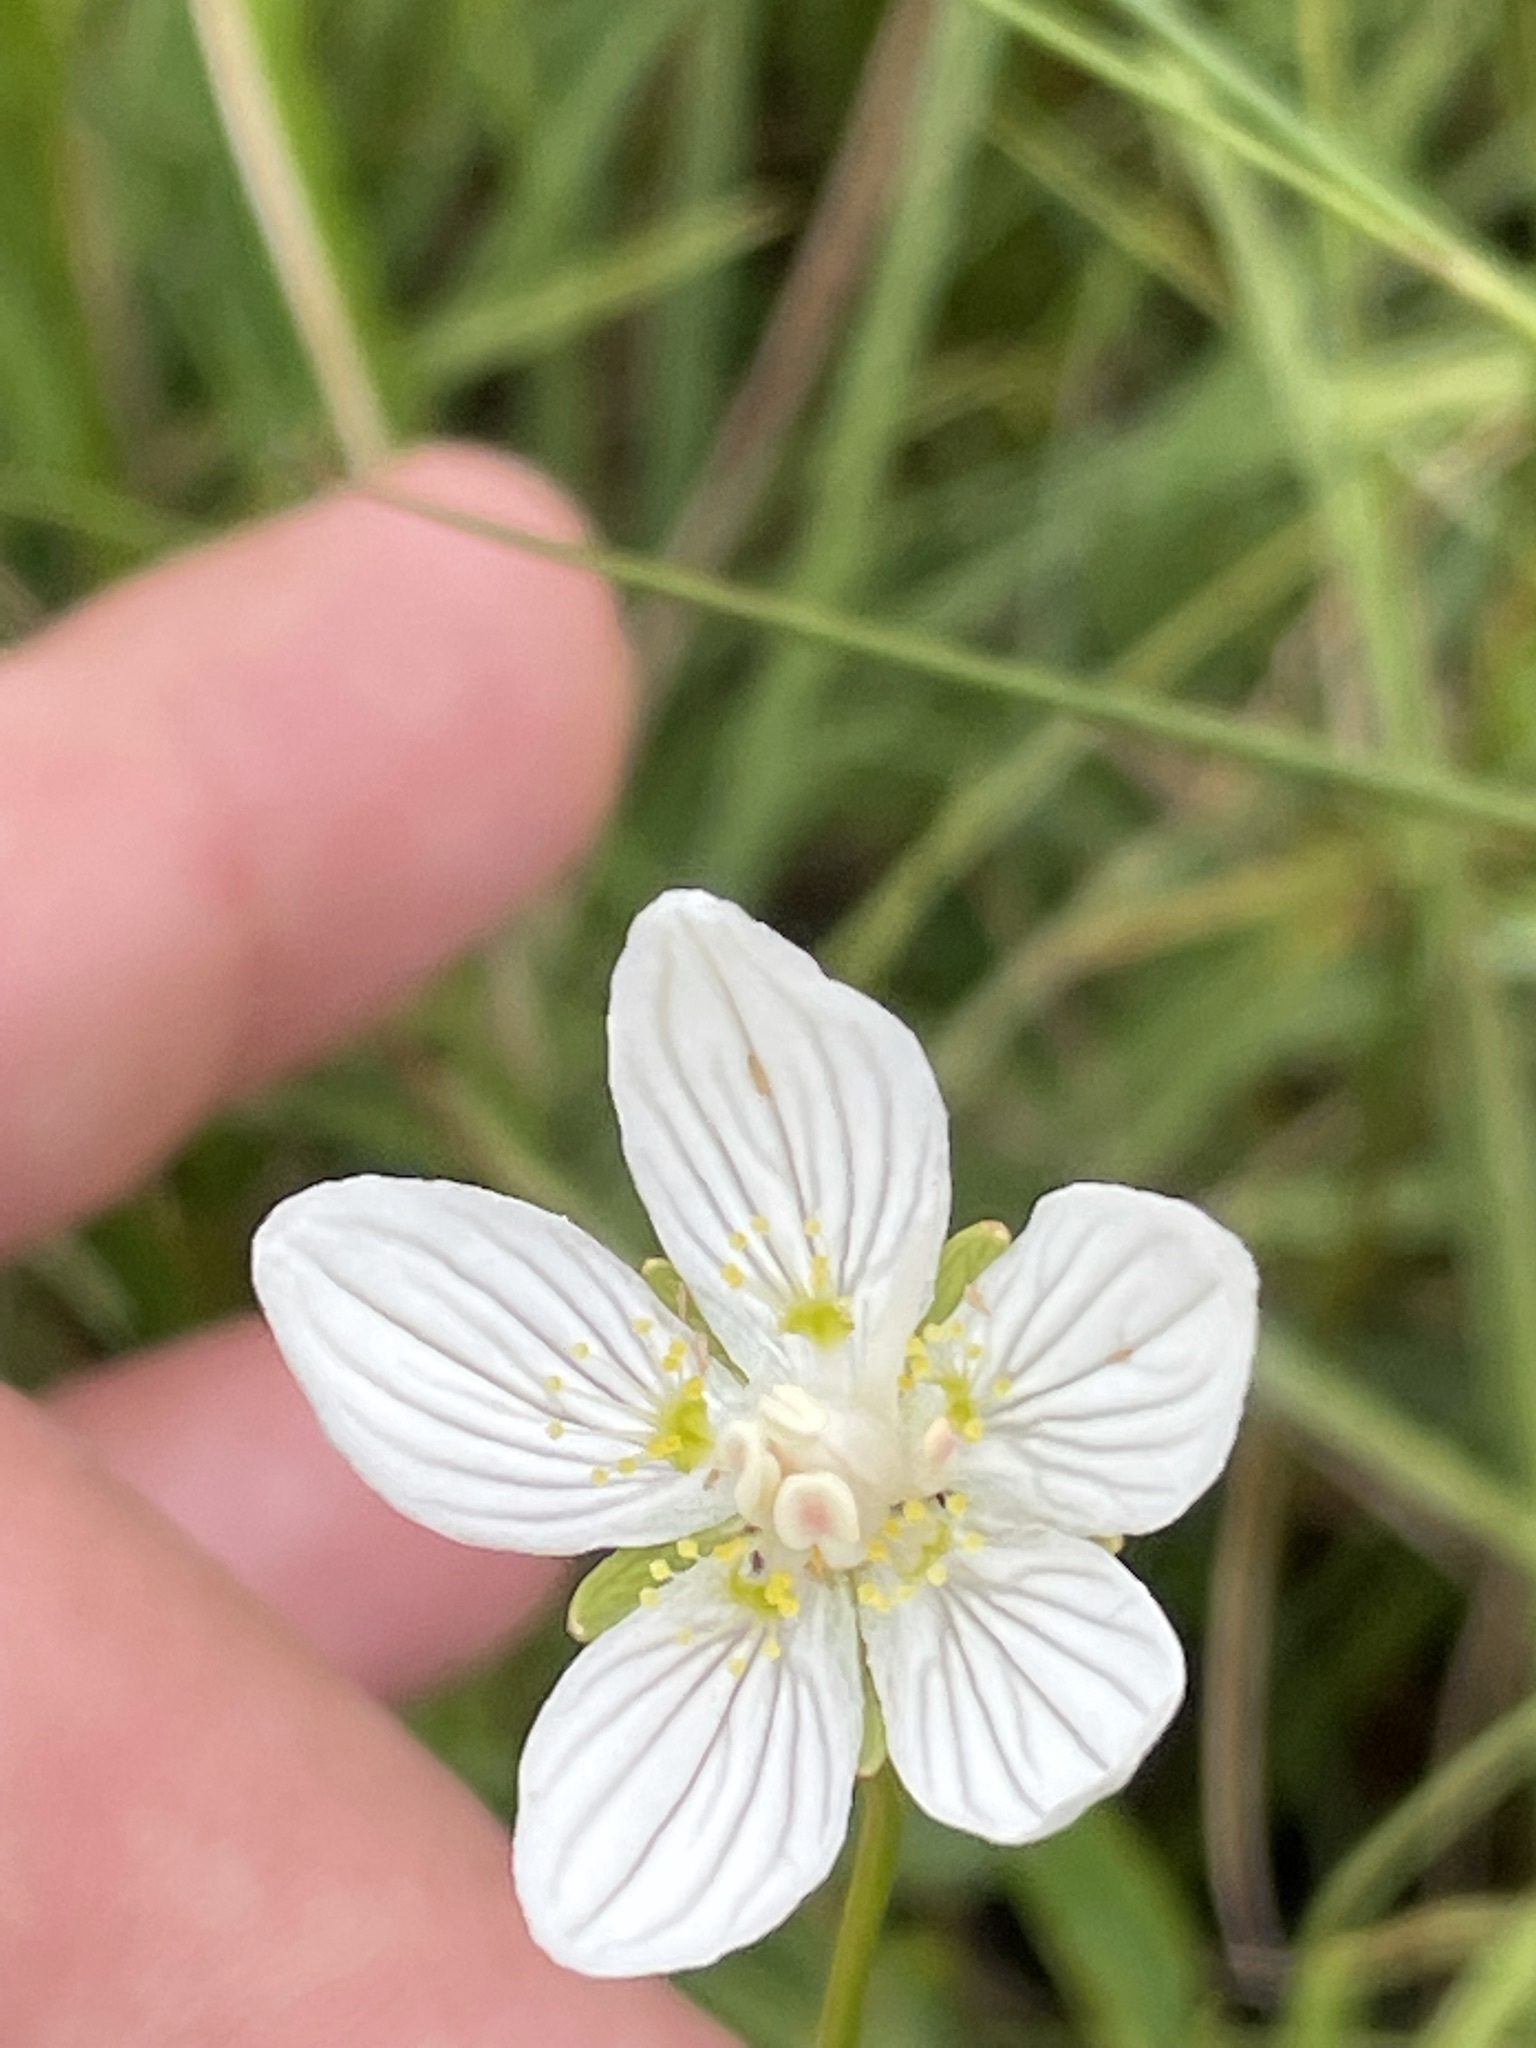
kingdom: Plantae
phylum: Tracheophyta
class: Magnoliopsida
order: Celastrales
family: Parnassiaceae
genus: Parnassia
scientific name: Parnassia palustris
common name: Grass-of-parnassus
